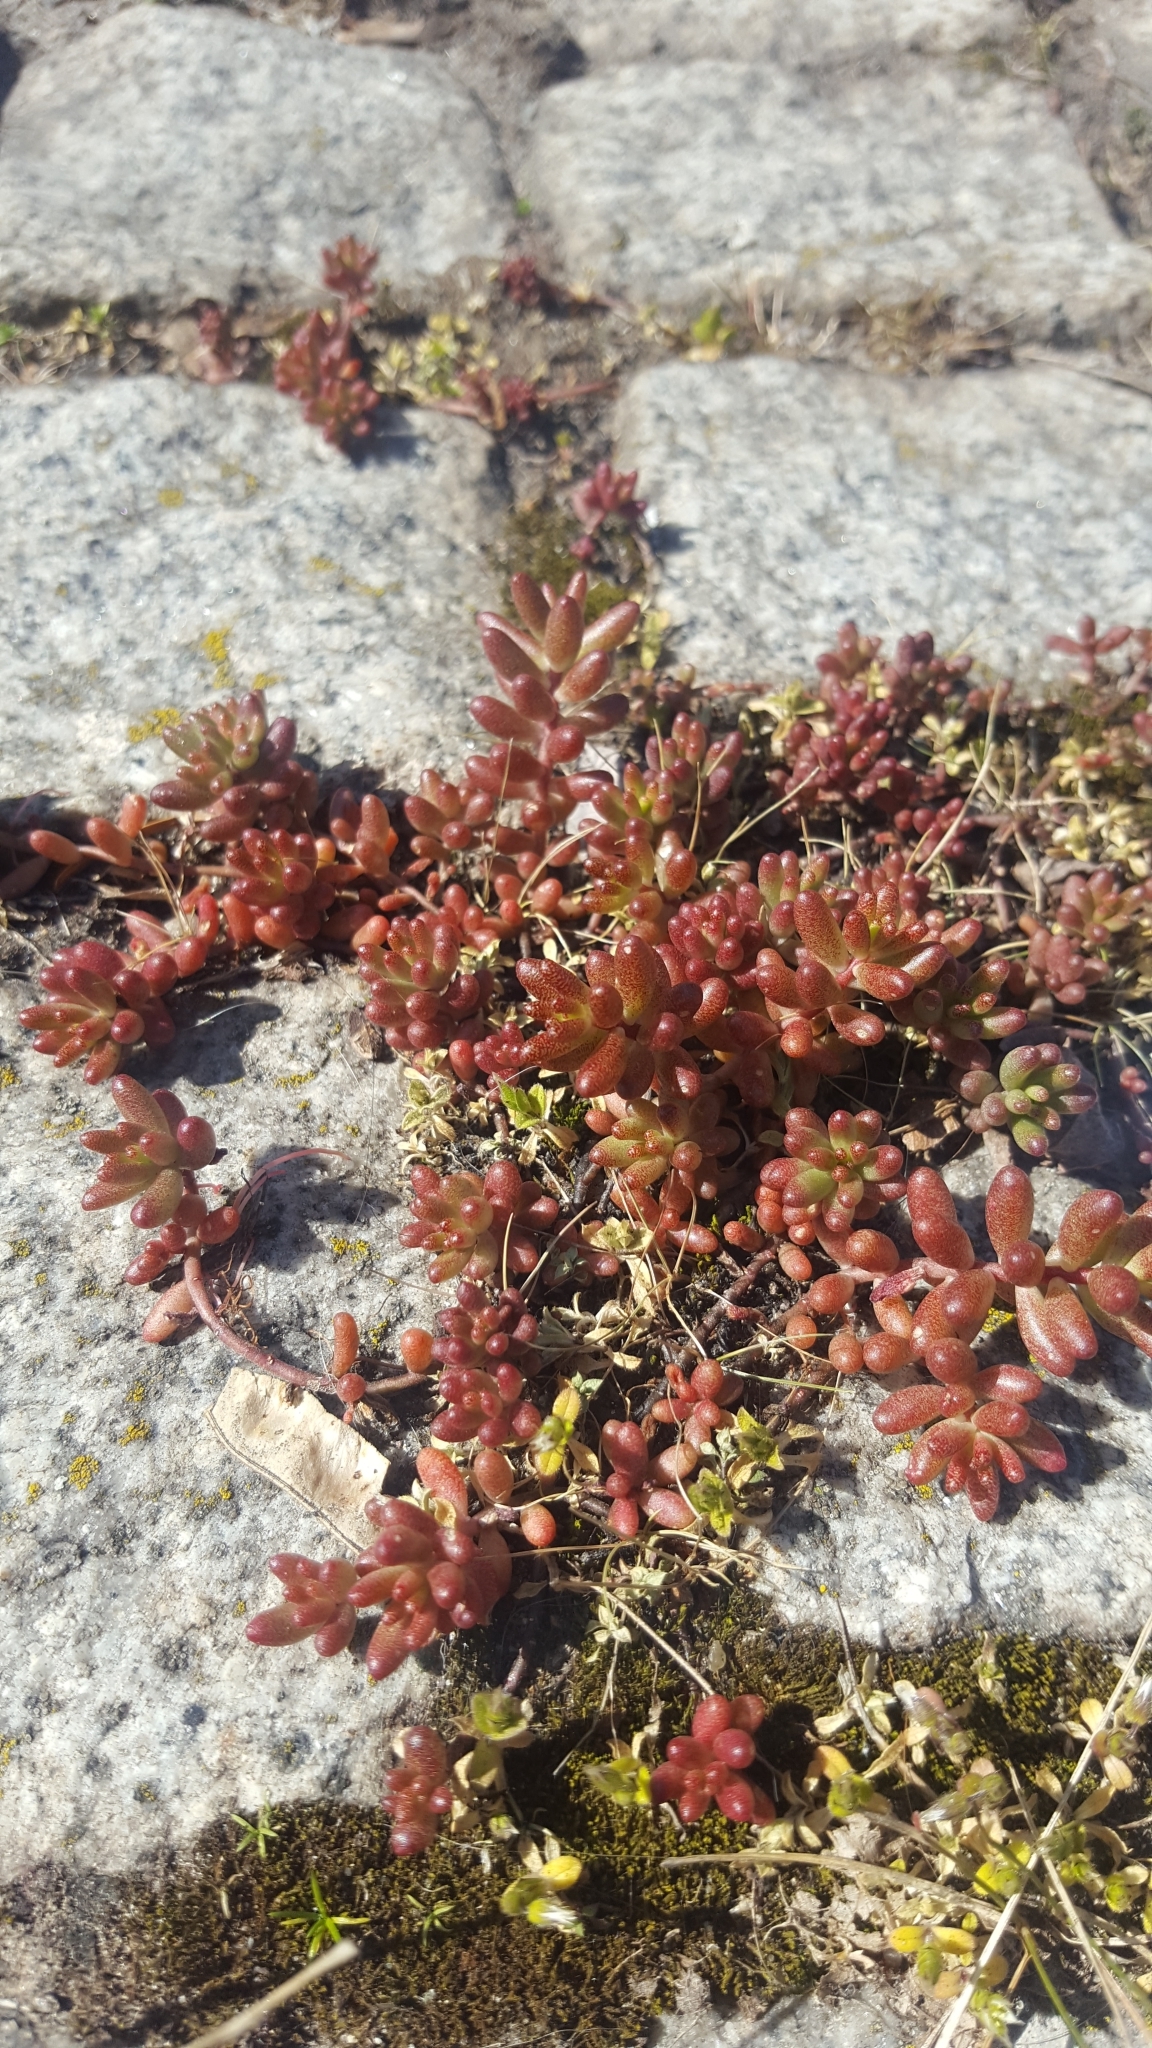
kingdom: Plantae
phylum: Tracheophyta
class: Magnoliopsida
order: Saxifragales
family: Crassulaceae
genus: Sedum
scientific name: Sedum album
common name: White stonecrop
